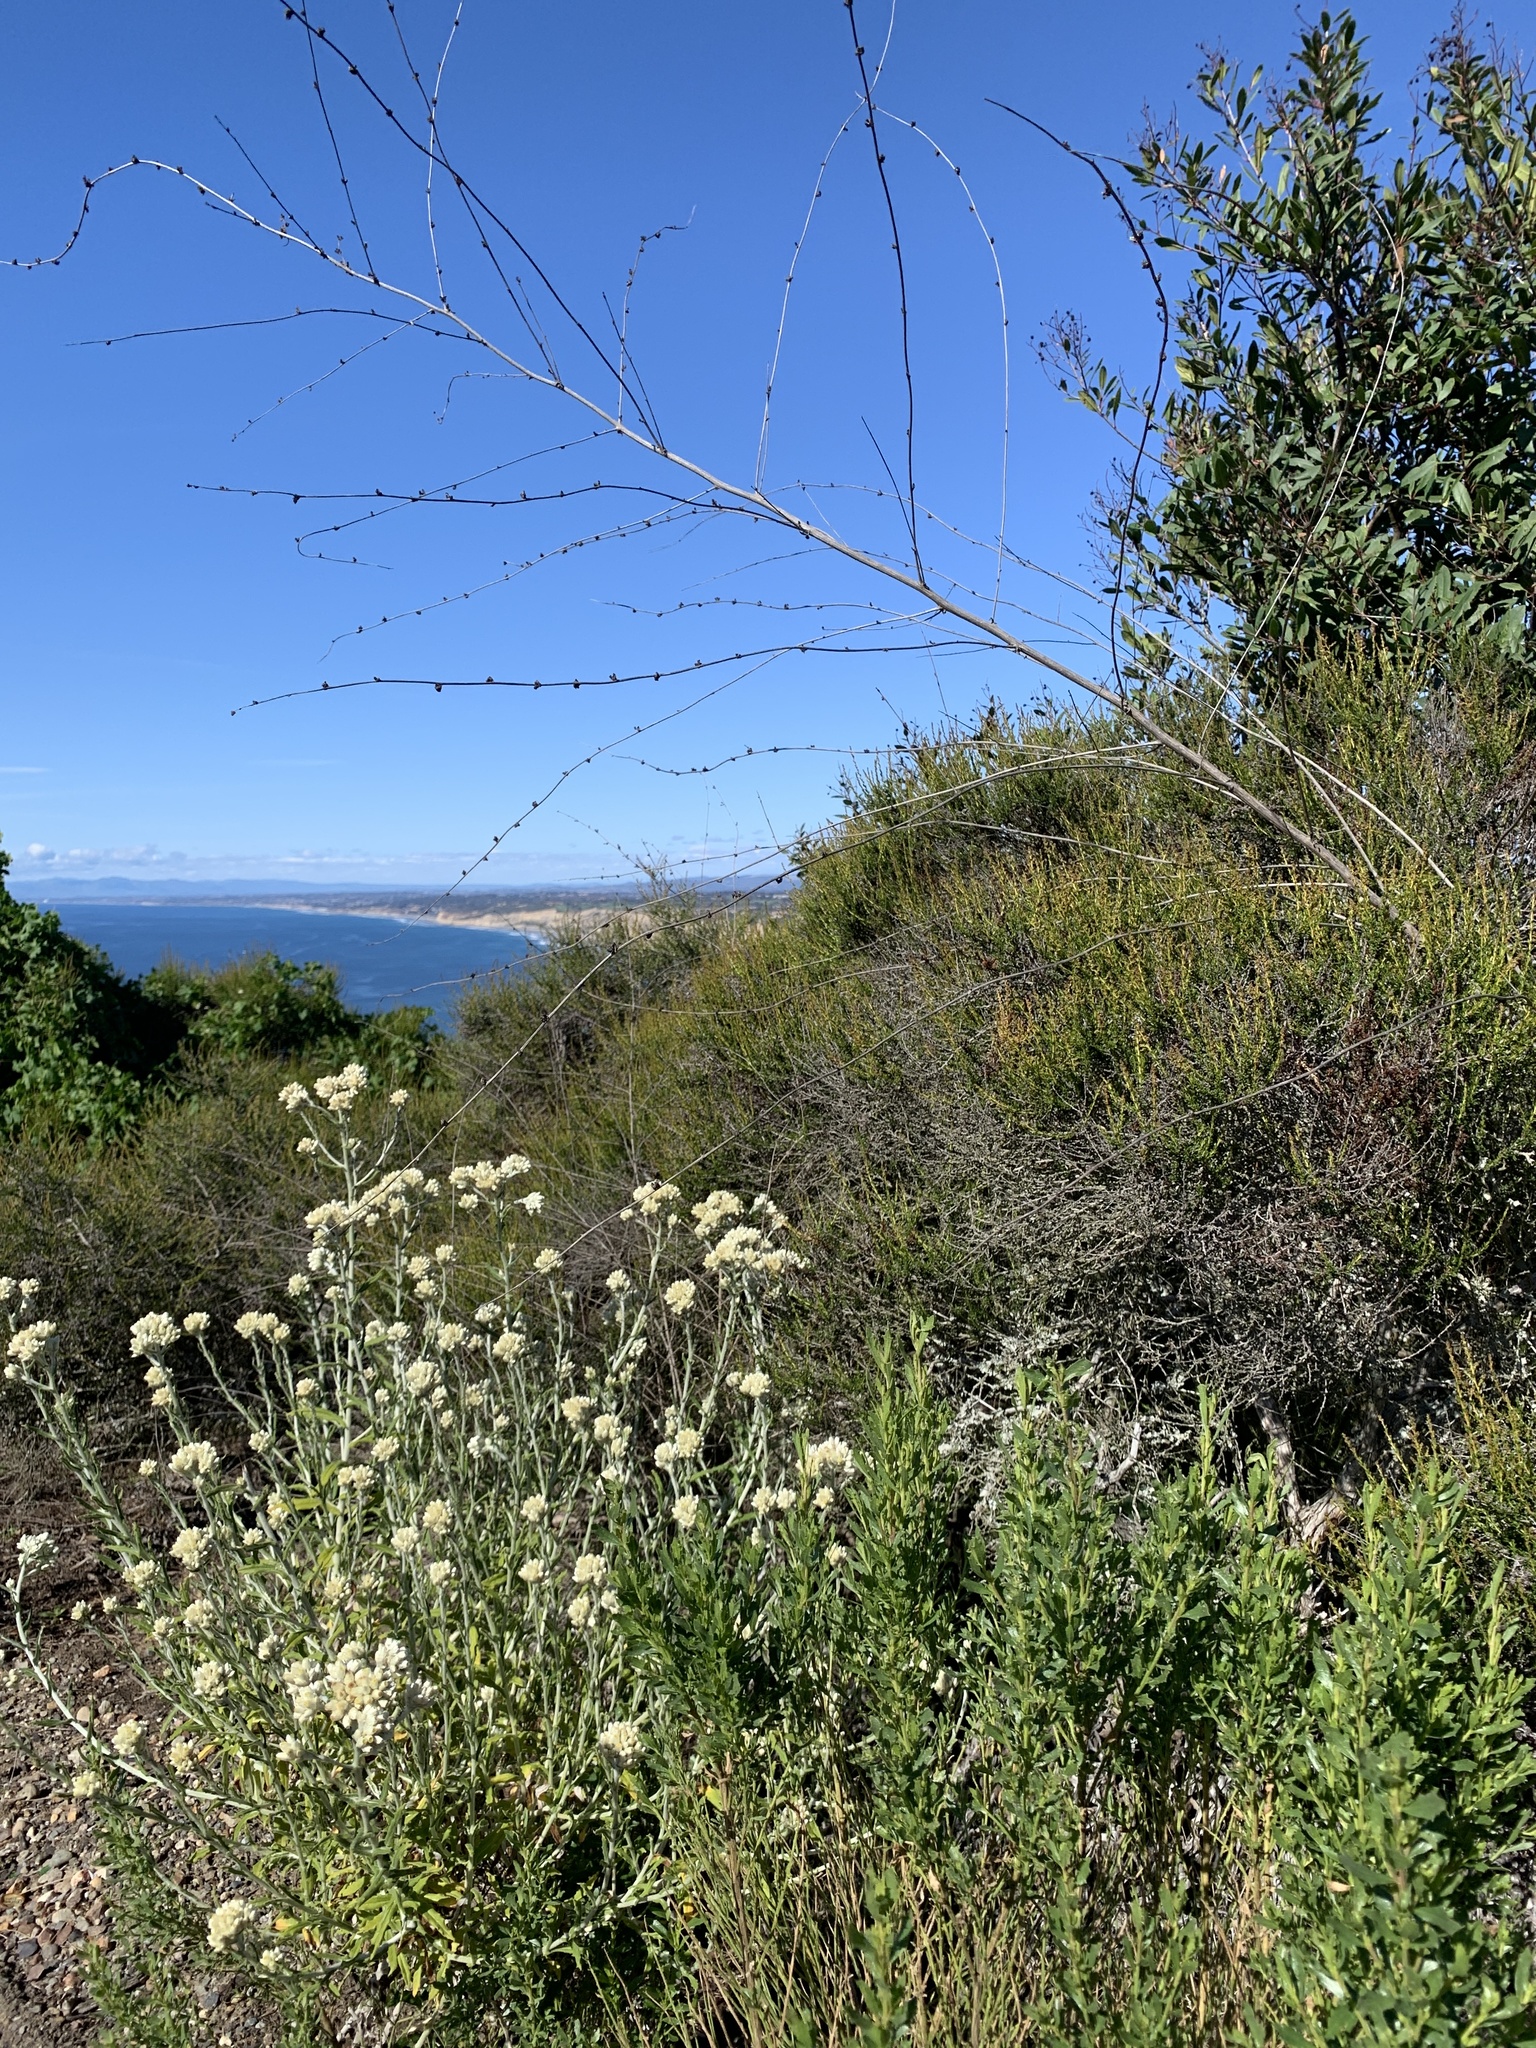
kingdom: Plantae
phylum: Tracheophyta
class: Magnoliopsida
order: Asterales
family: Asteraceae
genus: Pseudognaphalium
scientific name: Pseudognaphalium biolettii
